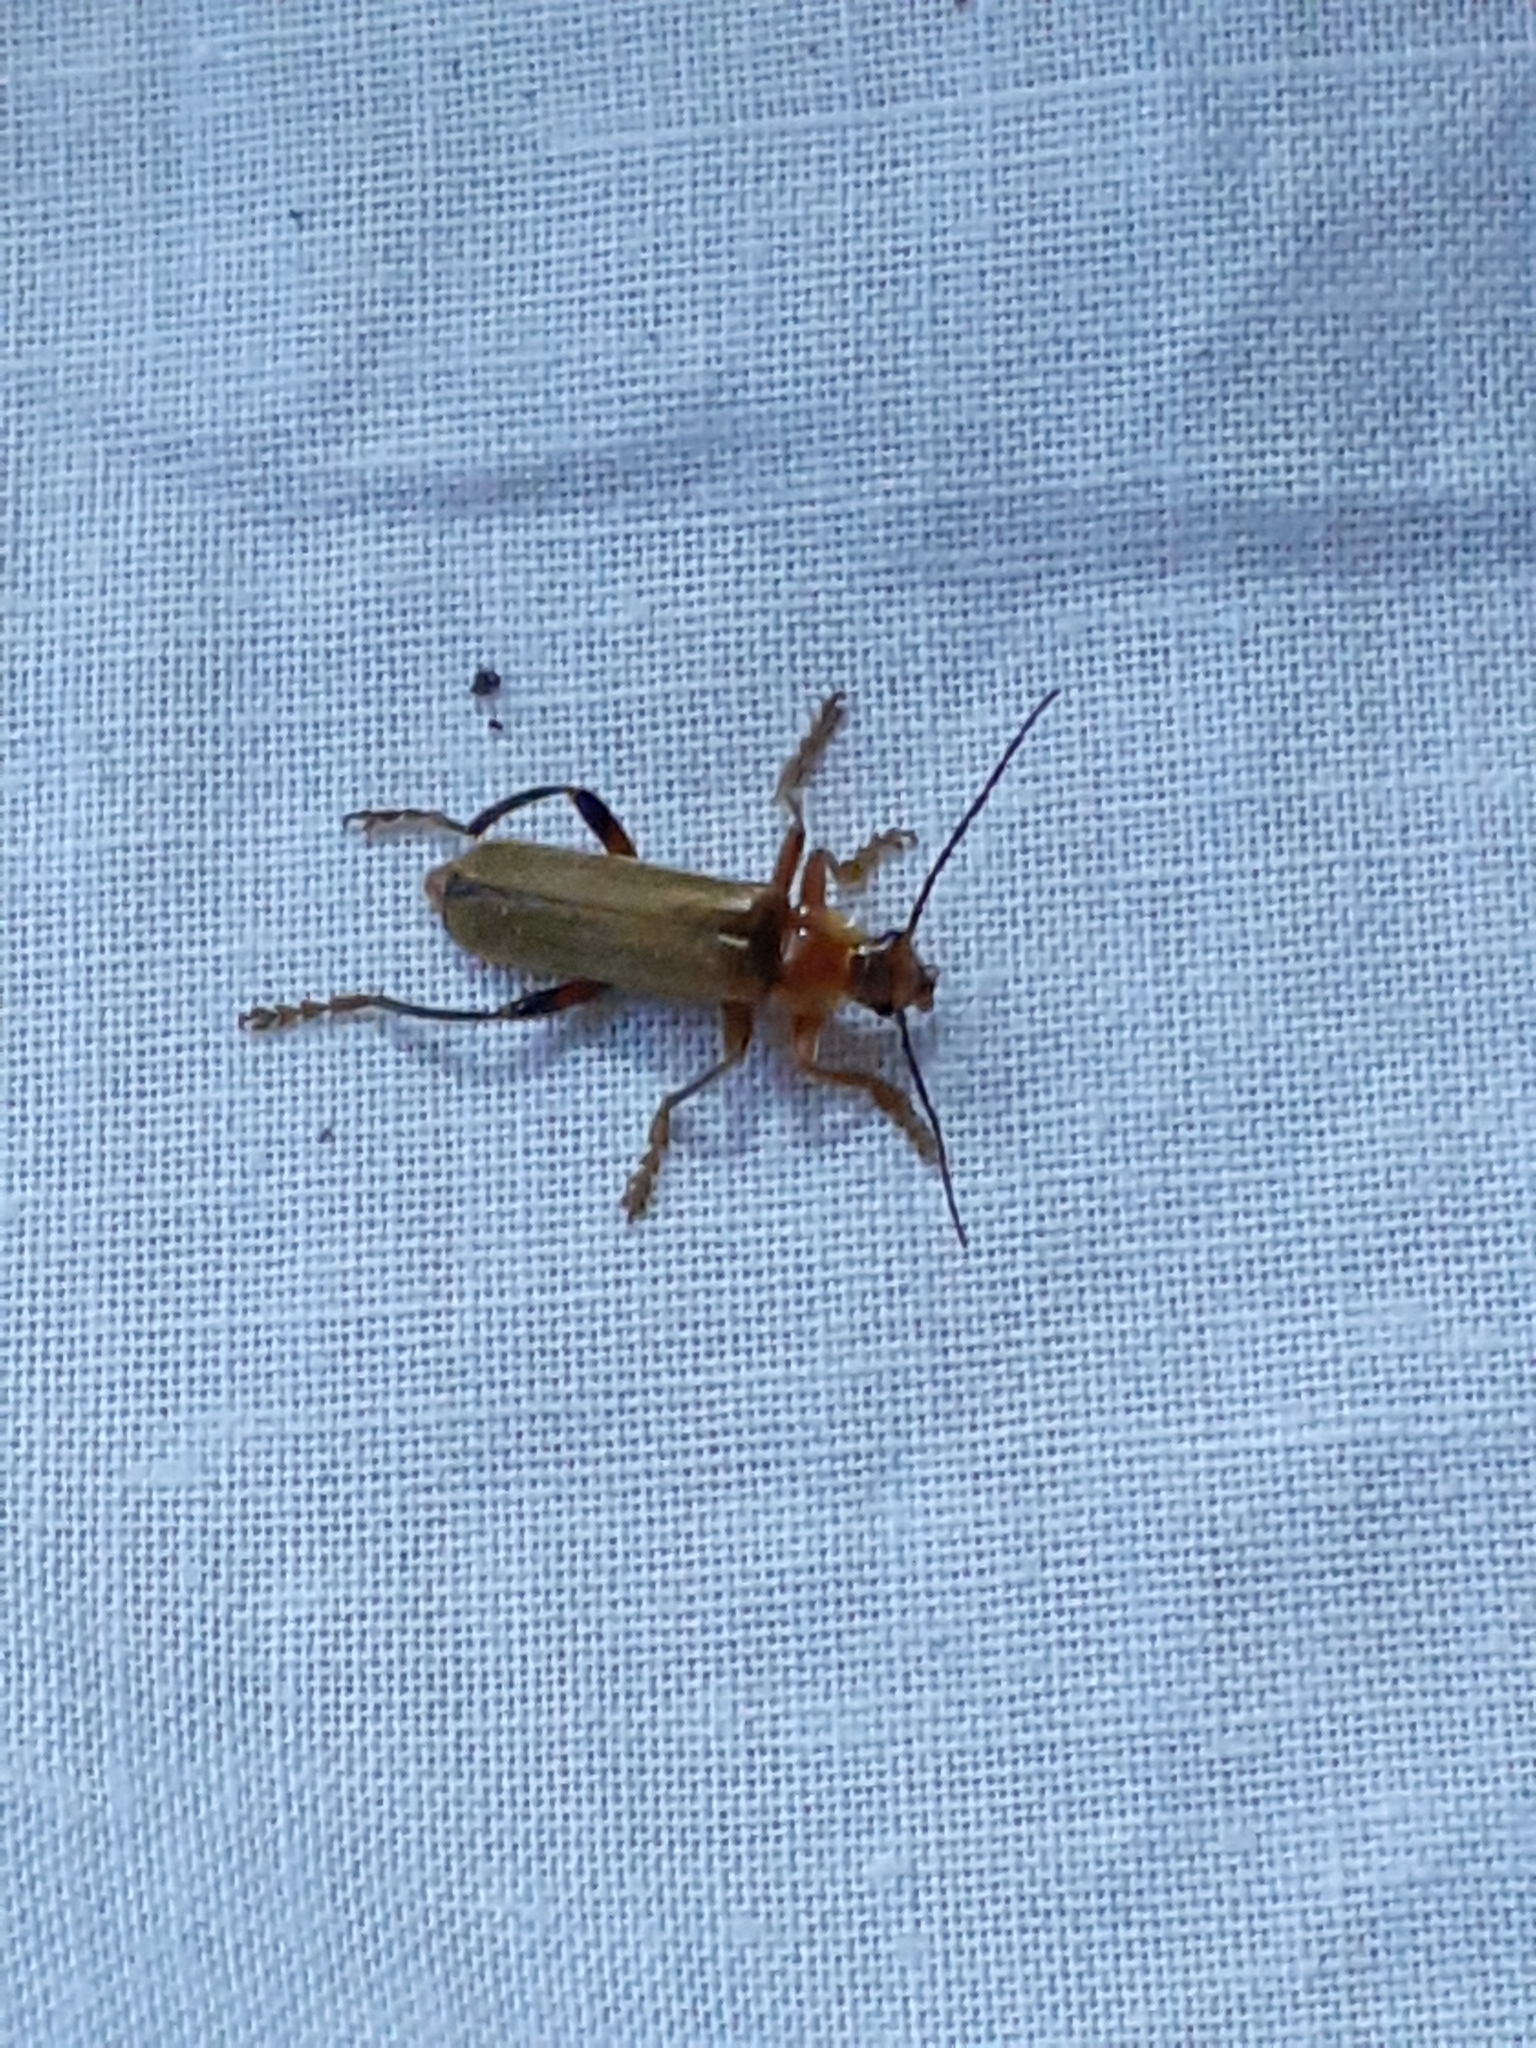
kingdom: Animalia
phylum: Arthropoda
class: Insecta
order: Coleoptera
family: Cantharidae
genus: Cantharis
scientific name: Cantharis livida
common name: Livid soldier beetle
